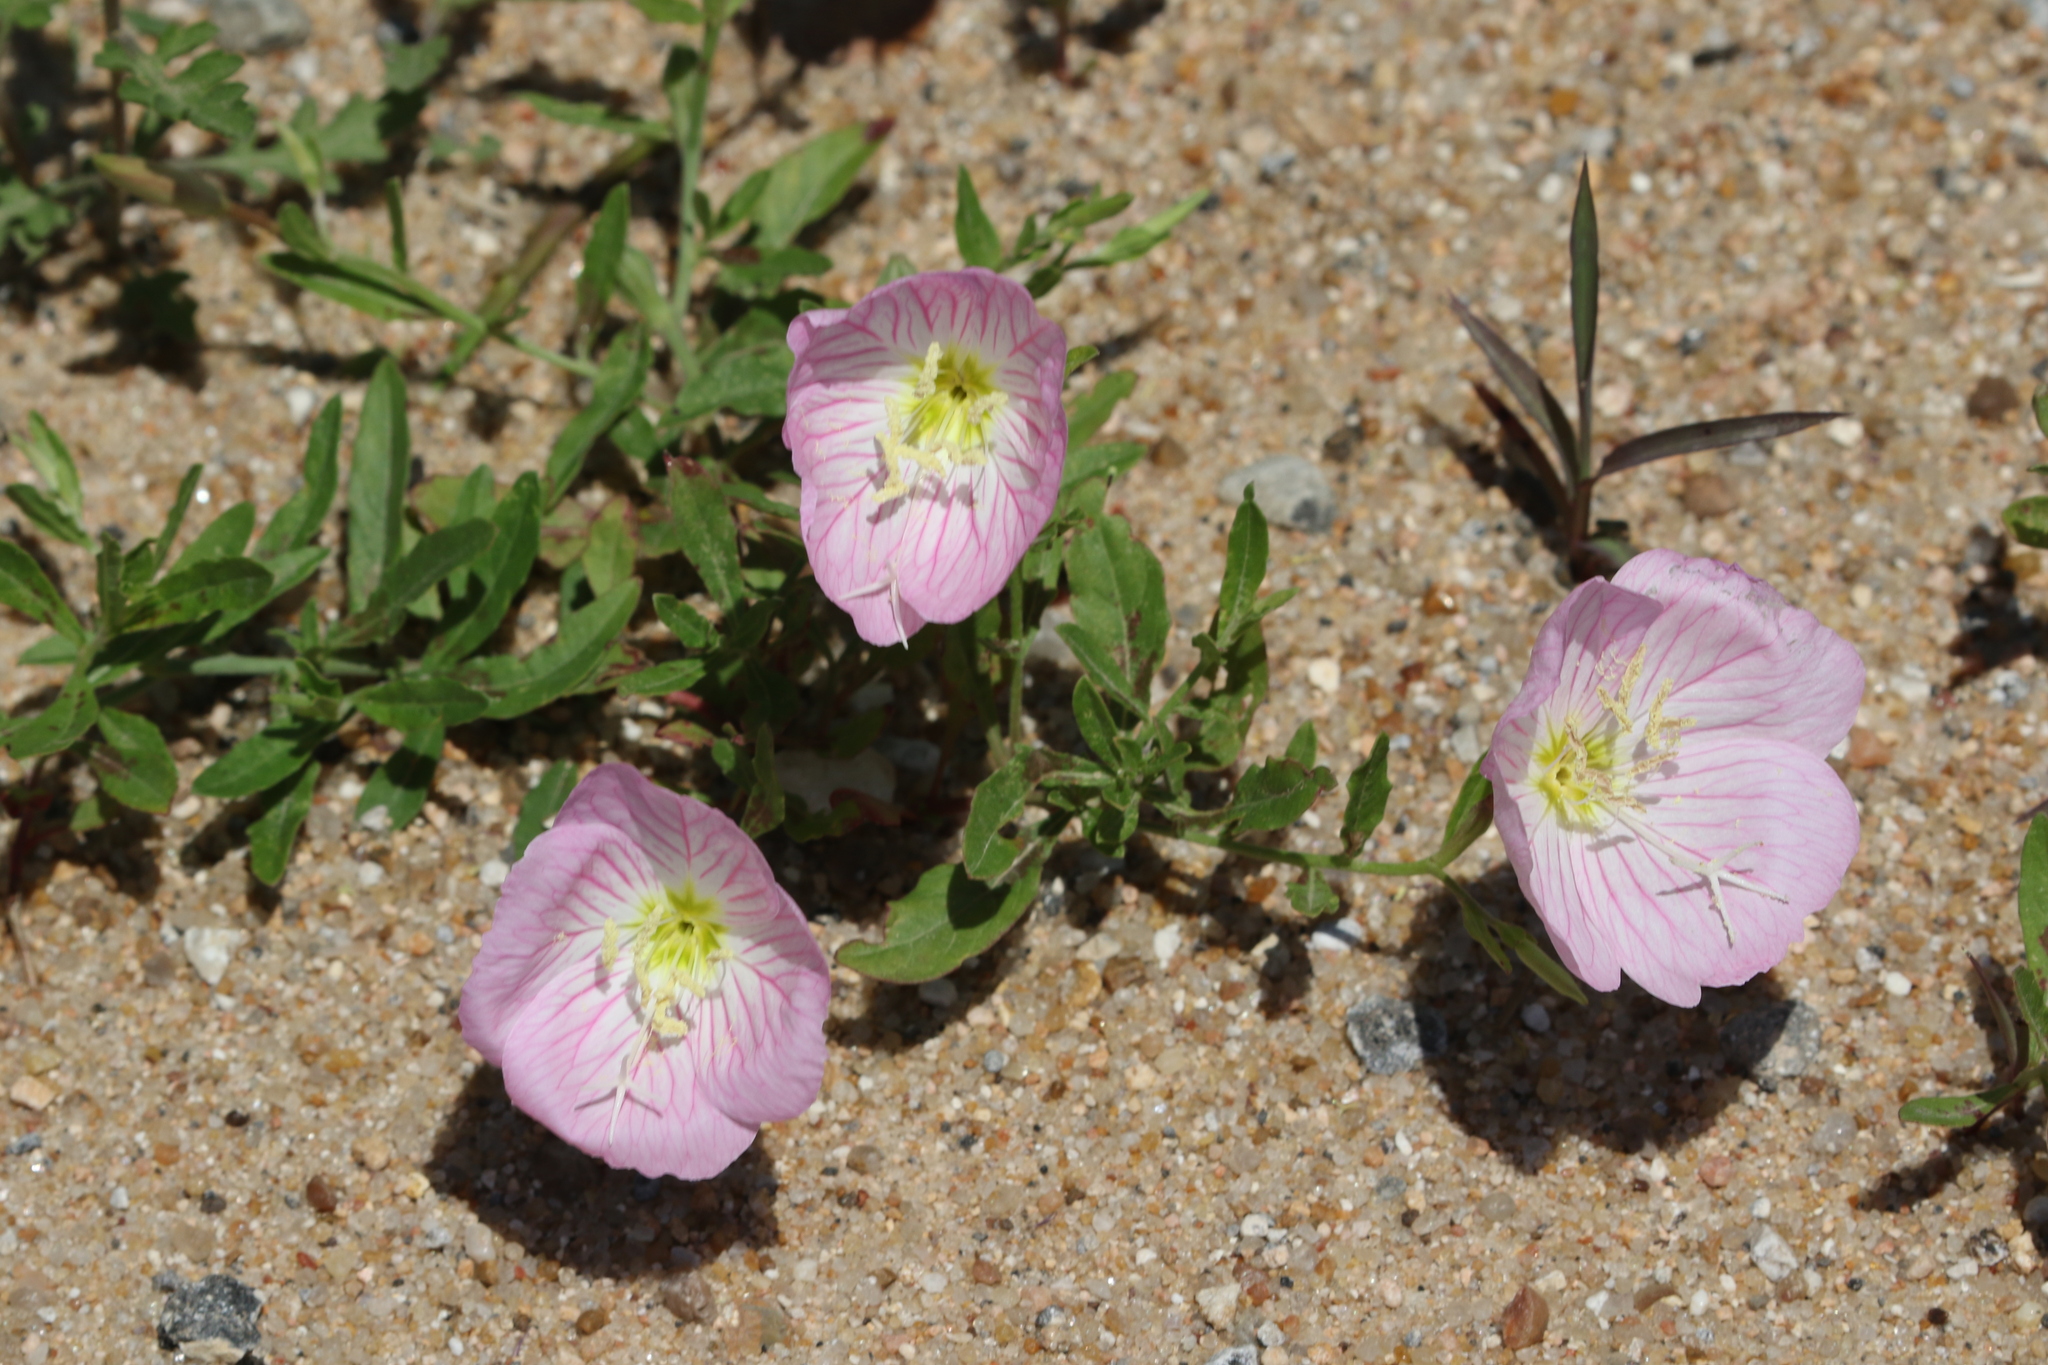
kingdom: Plantae
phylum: Tracheophyta
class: Magnoliopsida
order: Myrtales
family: Onagraceae
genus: Oenothera
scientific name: Oenothera speciosa
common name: White evening-primrose
